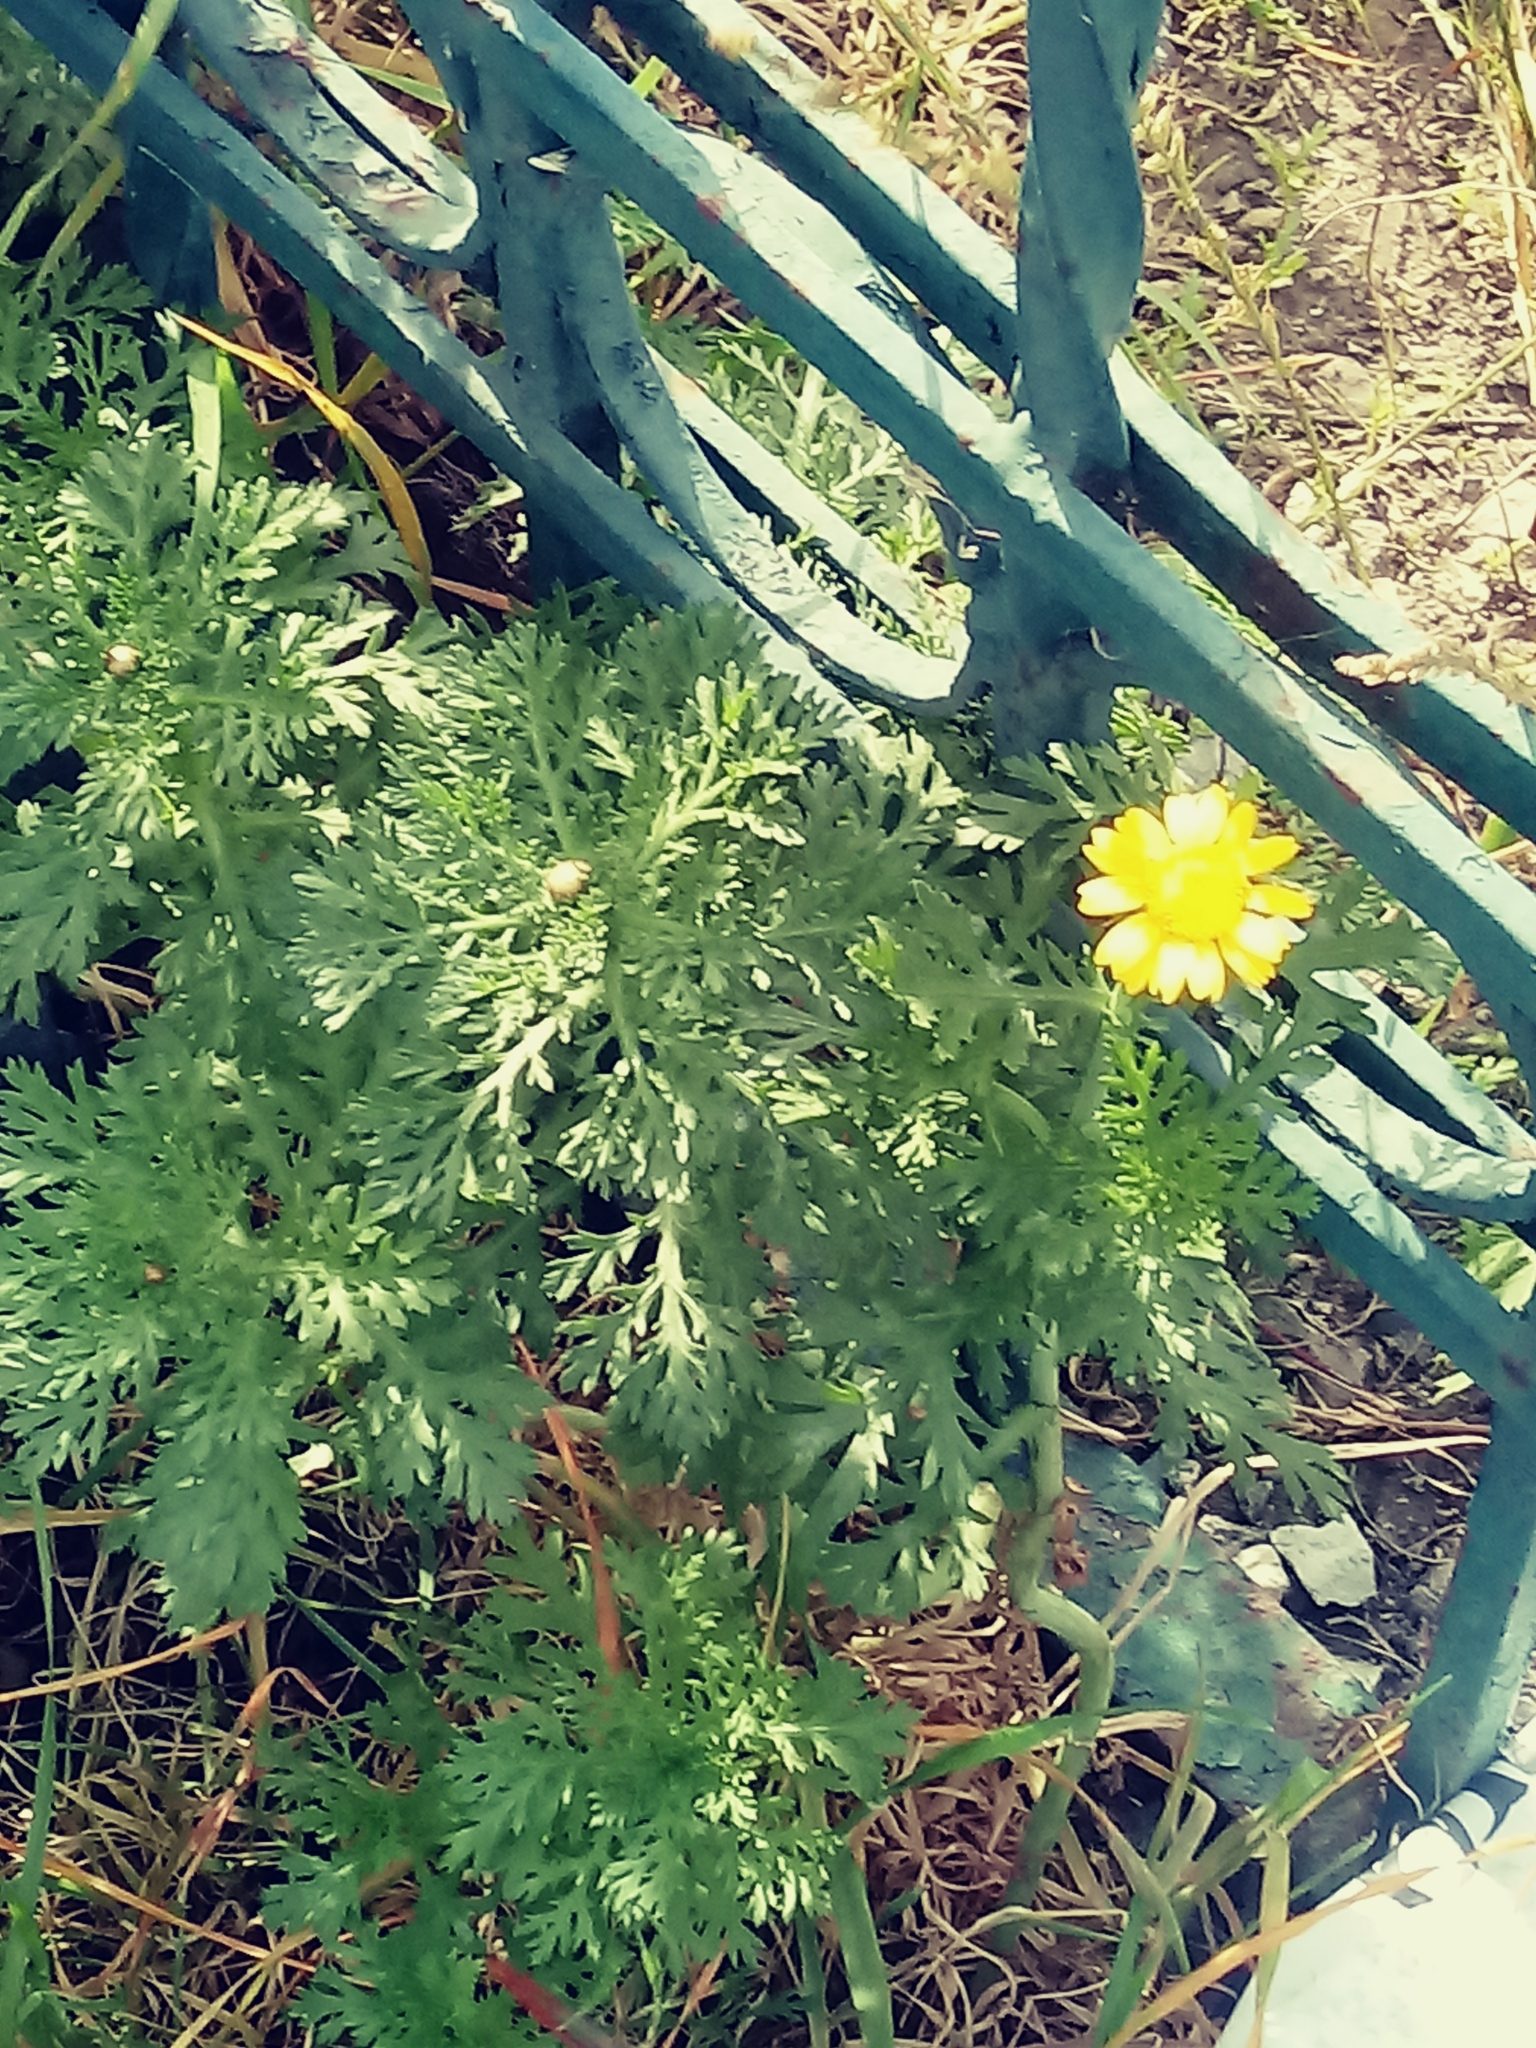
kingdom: Plantae
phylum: Tracheophyta
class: Magnoliopsida
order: Asterales
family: Asteraceae
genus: Glebionis
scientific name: Glebionis coronaria
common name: Crowndaisy
